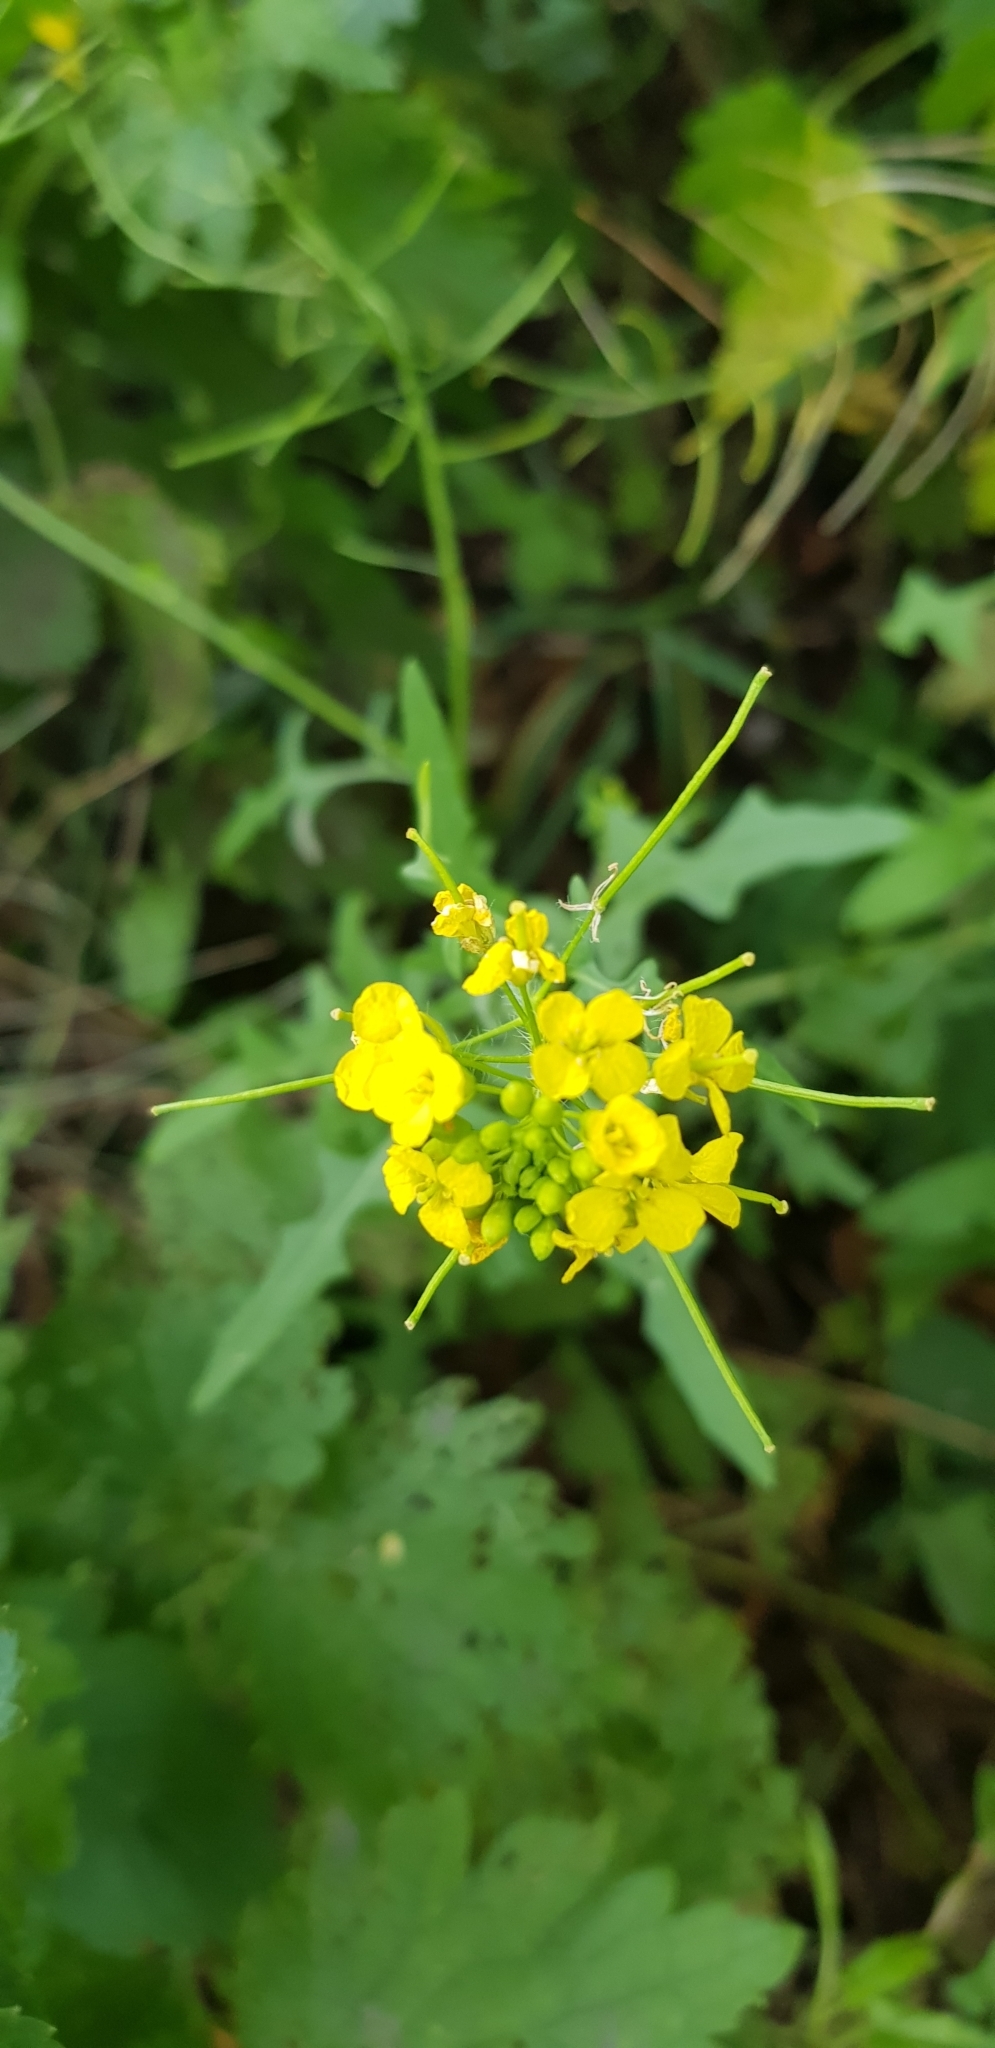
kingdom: Plantae
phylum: Tracheophyta
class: Magnoliopsida
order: Brassicales
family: Brassicaceae
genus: Sisymbrium
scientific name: Sisymbrium loeselii
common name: False london-rocket
